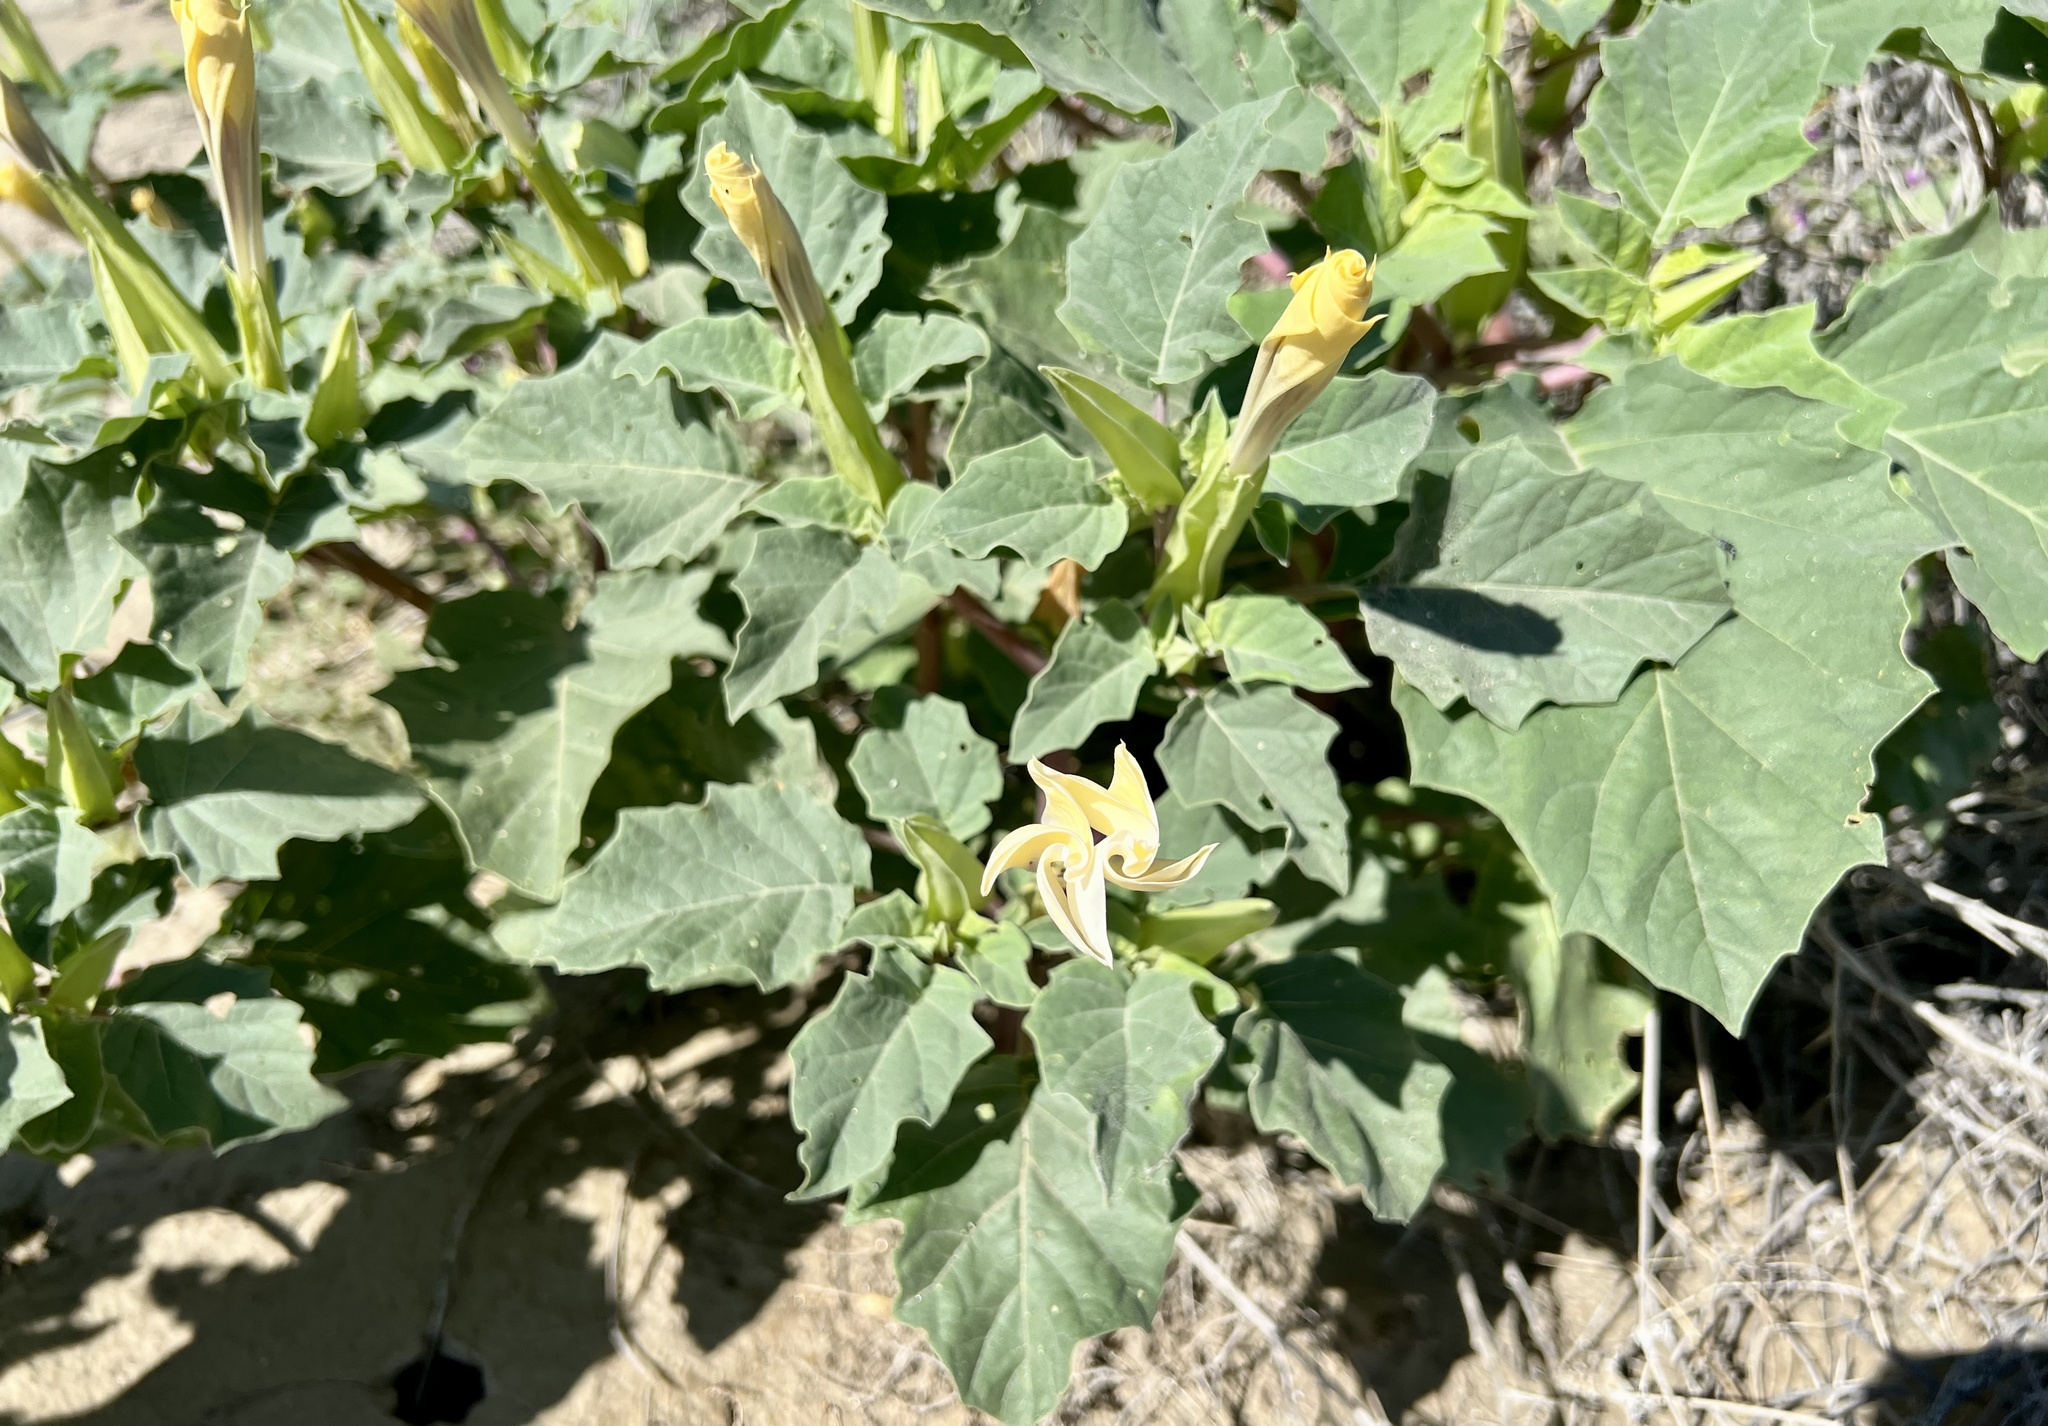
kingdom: Plantae
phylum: Tracheophyta
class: Magnoliopsida
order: Solanales
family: Solanaceae
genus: Datura
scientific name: Datura discolor
